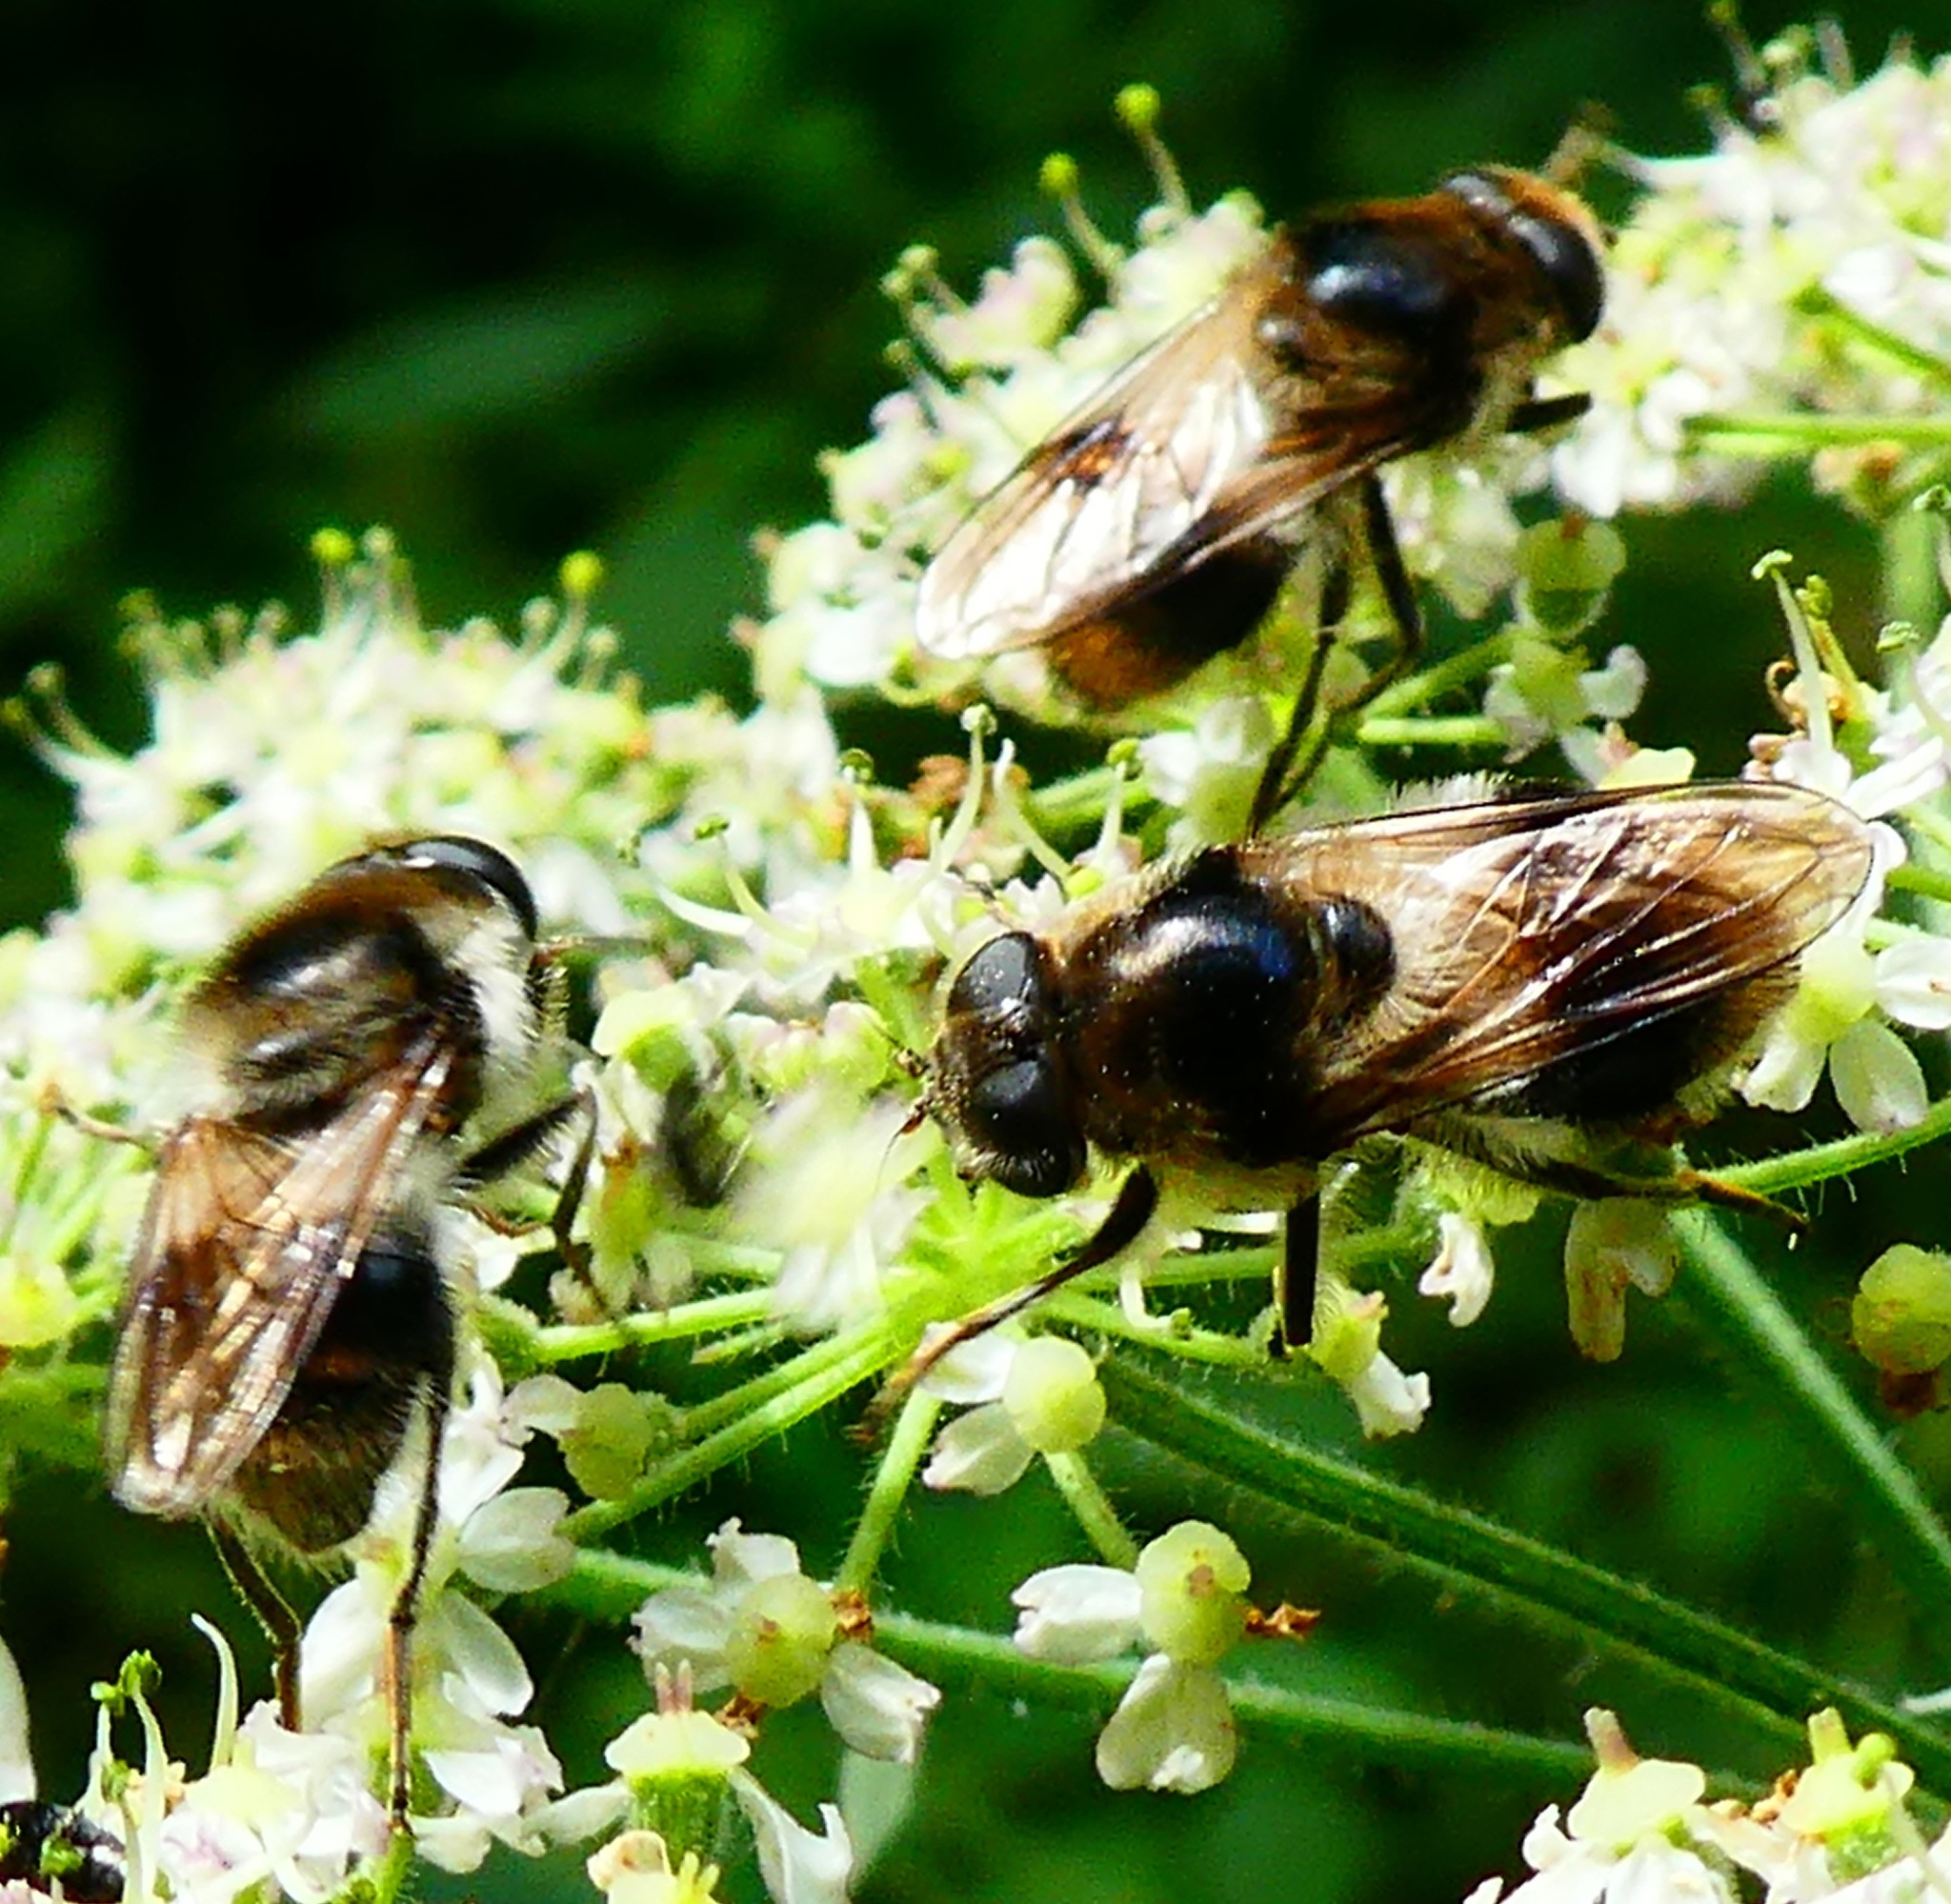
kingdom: Animalia
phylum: Arthropoda
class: Insecta
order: Diptera
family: Syrphidae
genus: Cheilosia
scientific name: Cheilosia illustrata
